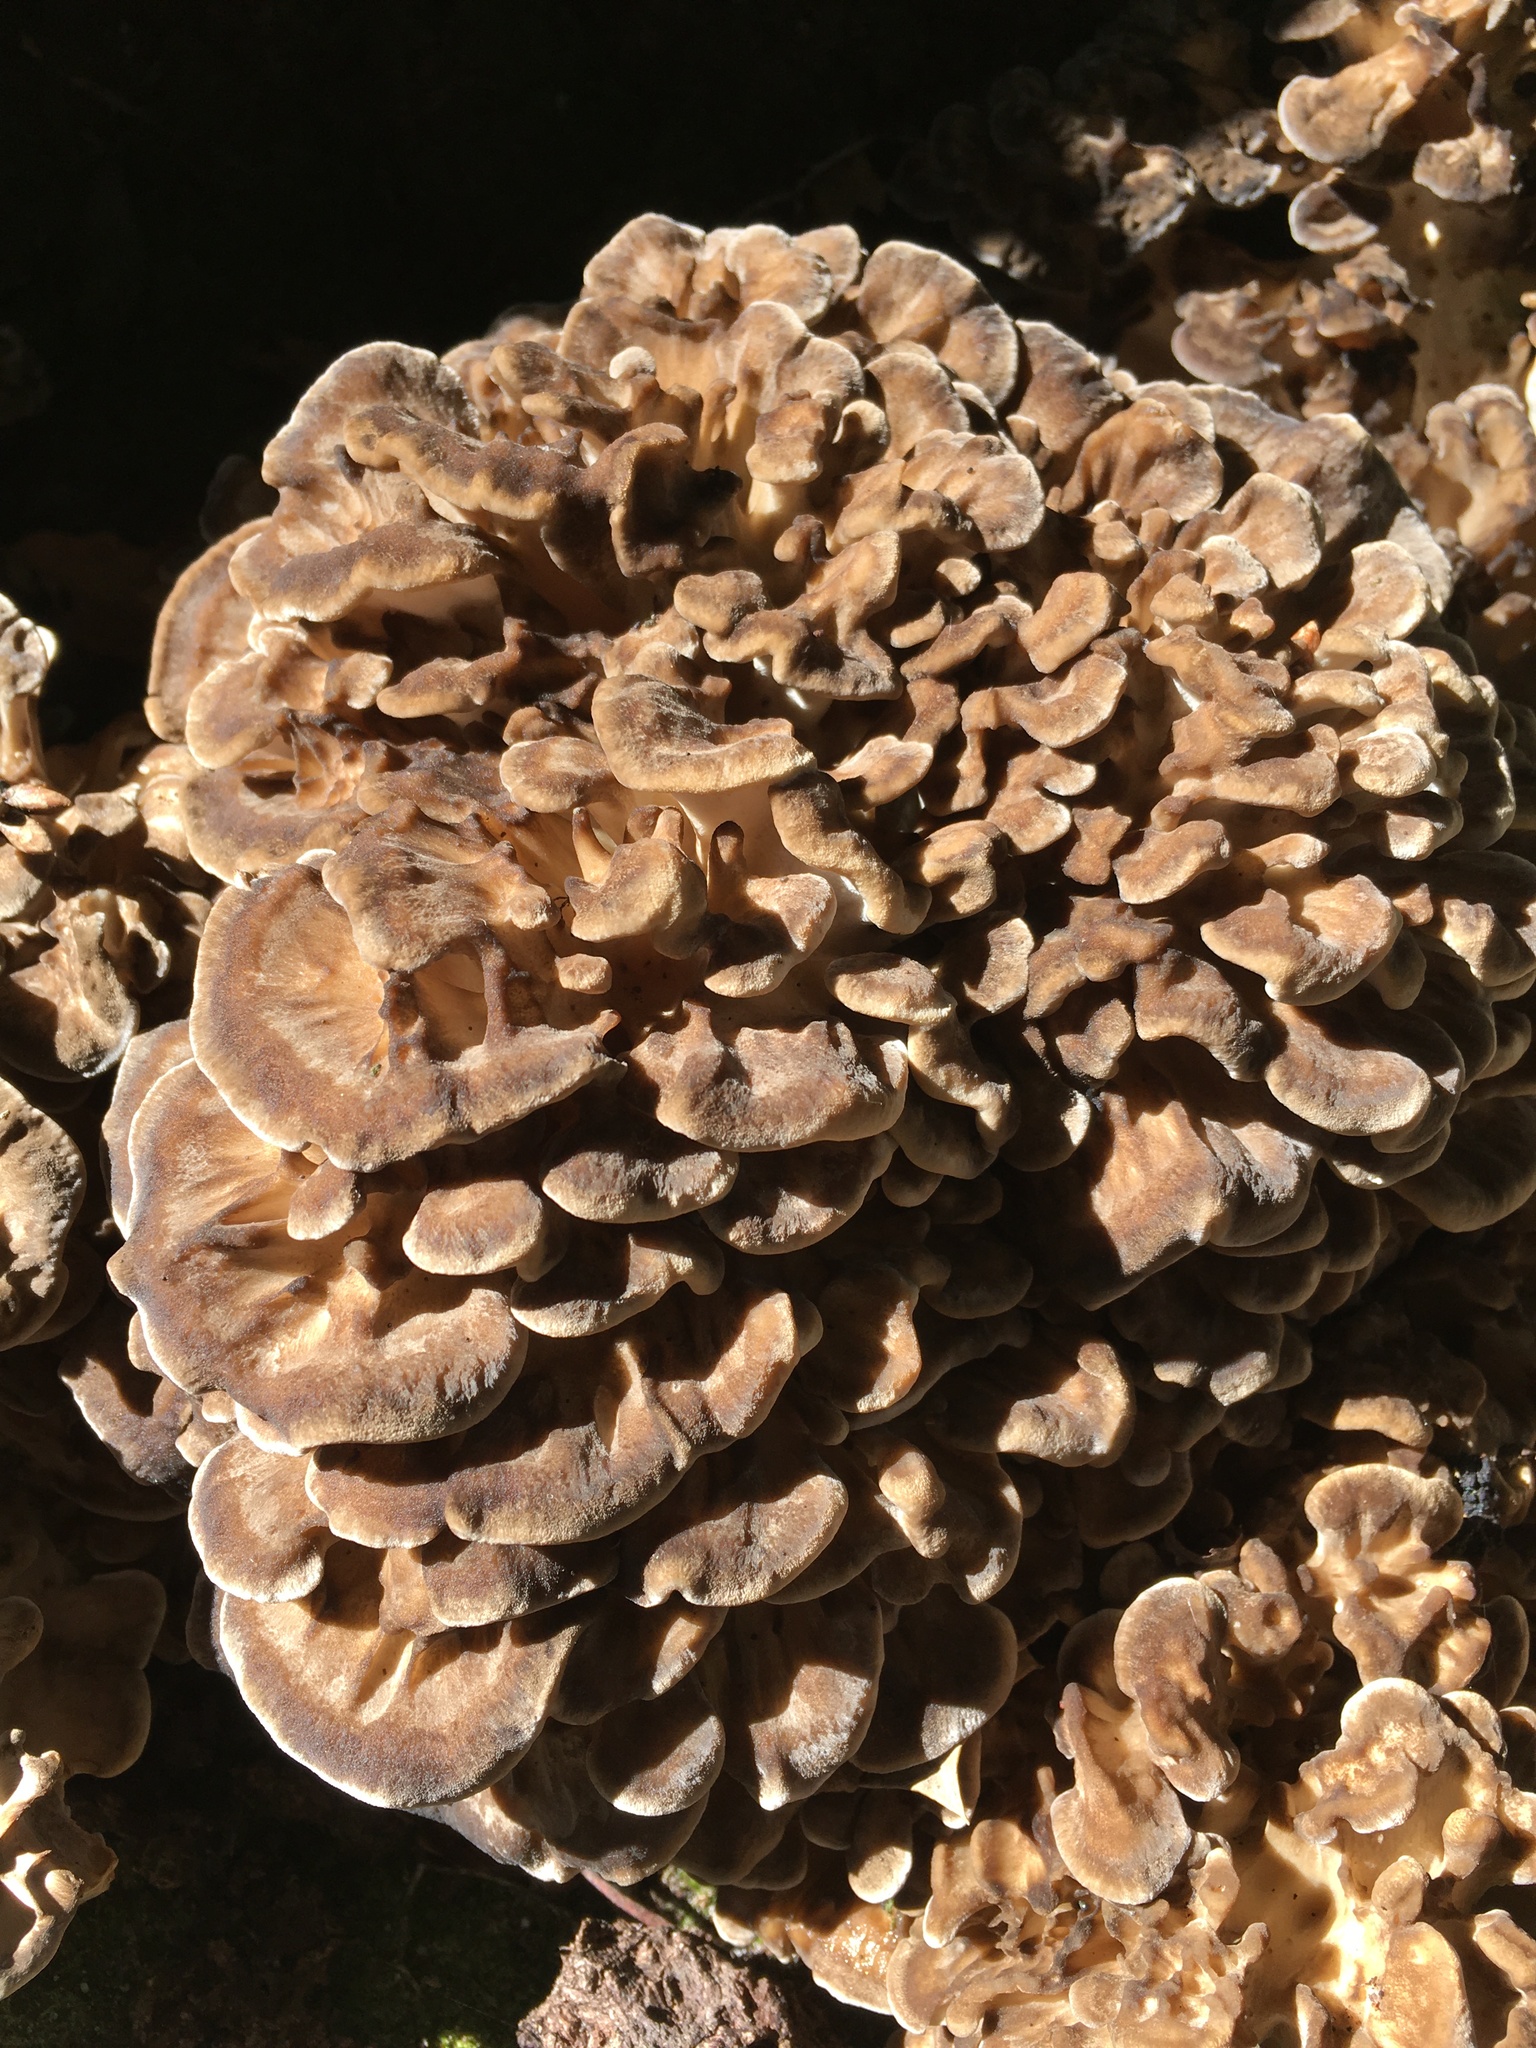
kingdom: Fungi
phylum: Basidiomycota
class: Agaricomycetes
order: Polyporales
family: Grifolaceae
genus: Grifola
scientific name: Grifola frondosa
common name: Hen of the woods
